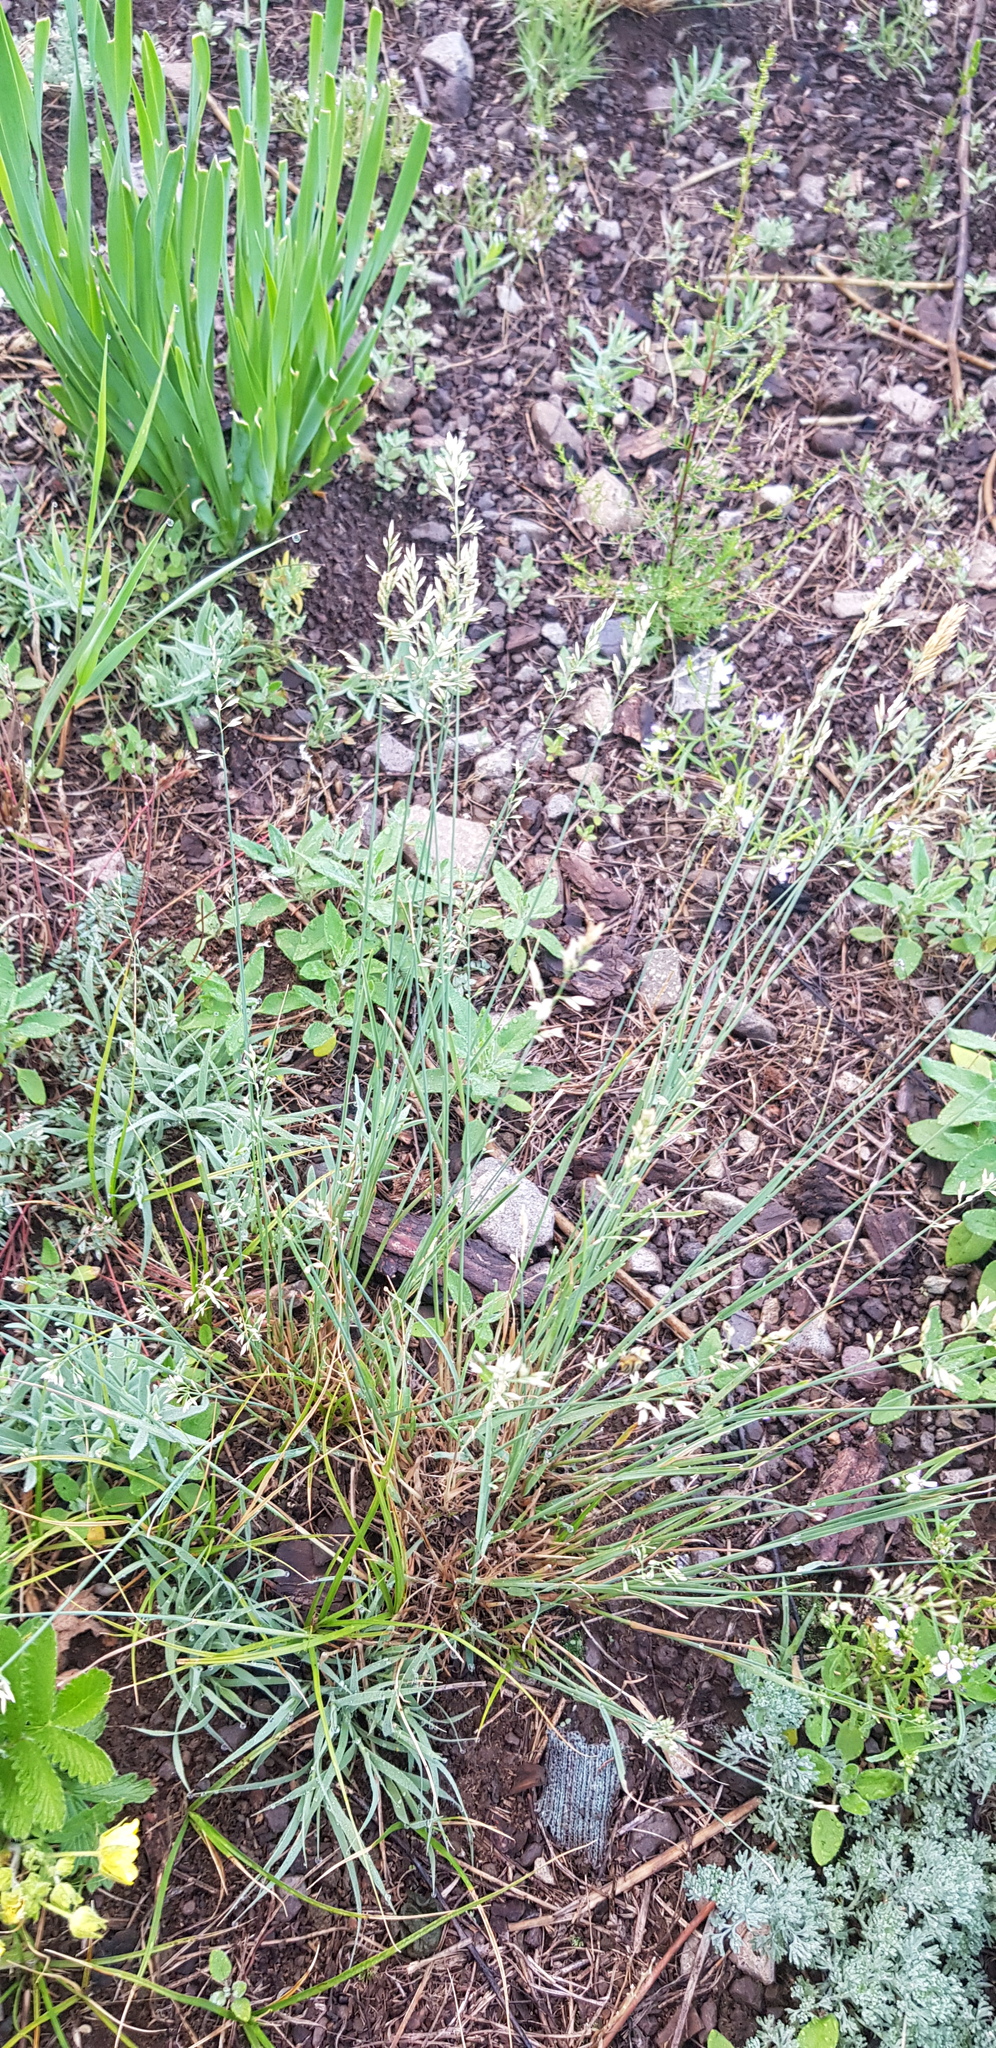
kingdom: Plantae
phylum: Tracheophyta
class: Liliopsida
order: Poales
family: Poaceae
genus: Poa
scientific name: Poa attenuata
